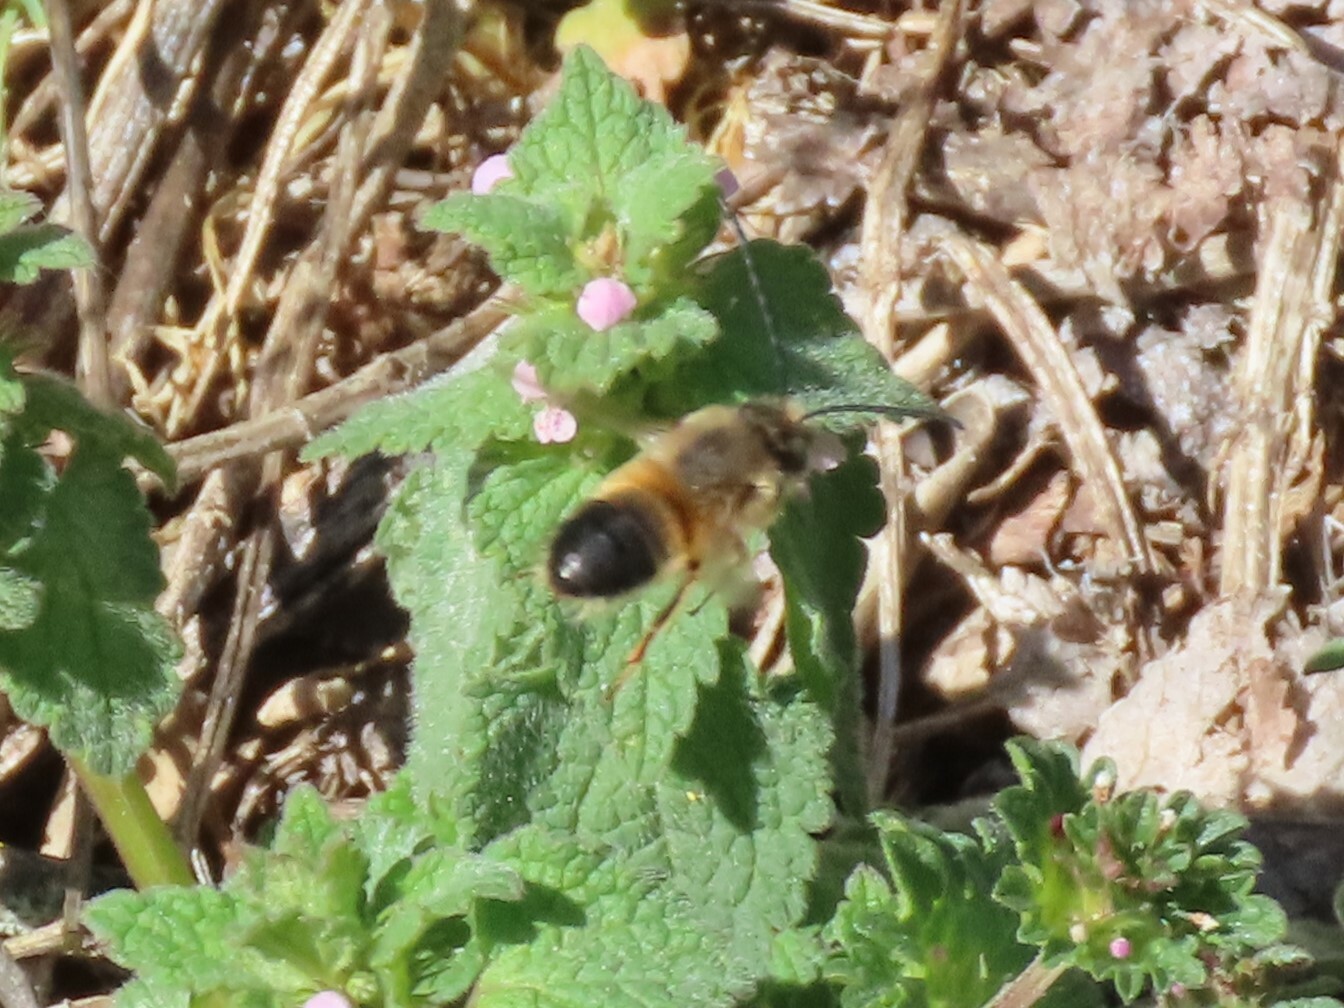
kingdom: Animalia
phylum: Arthropoda
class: Insecta
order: Hymenoptera
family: Apidae
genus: Eucera
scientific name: Eucera nigrilabris
